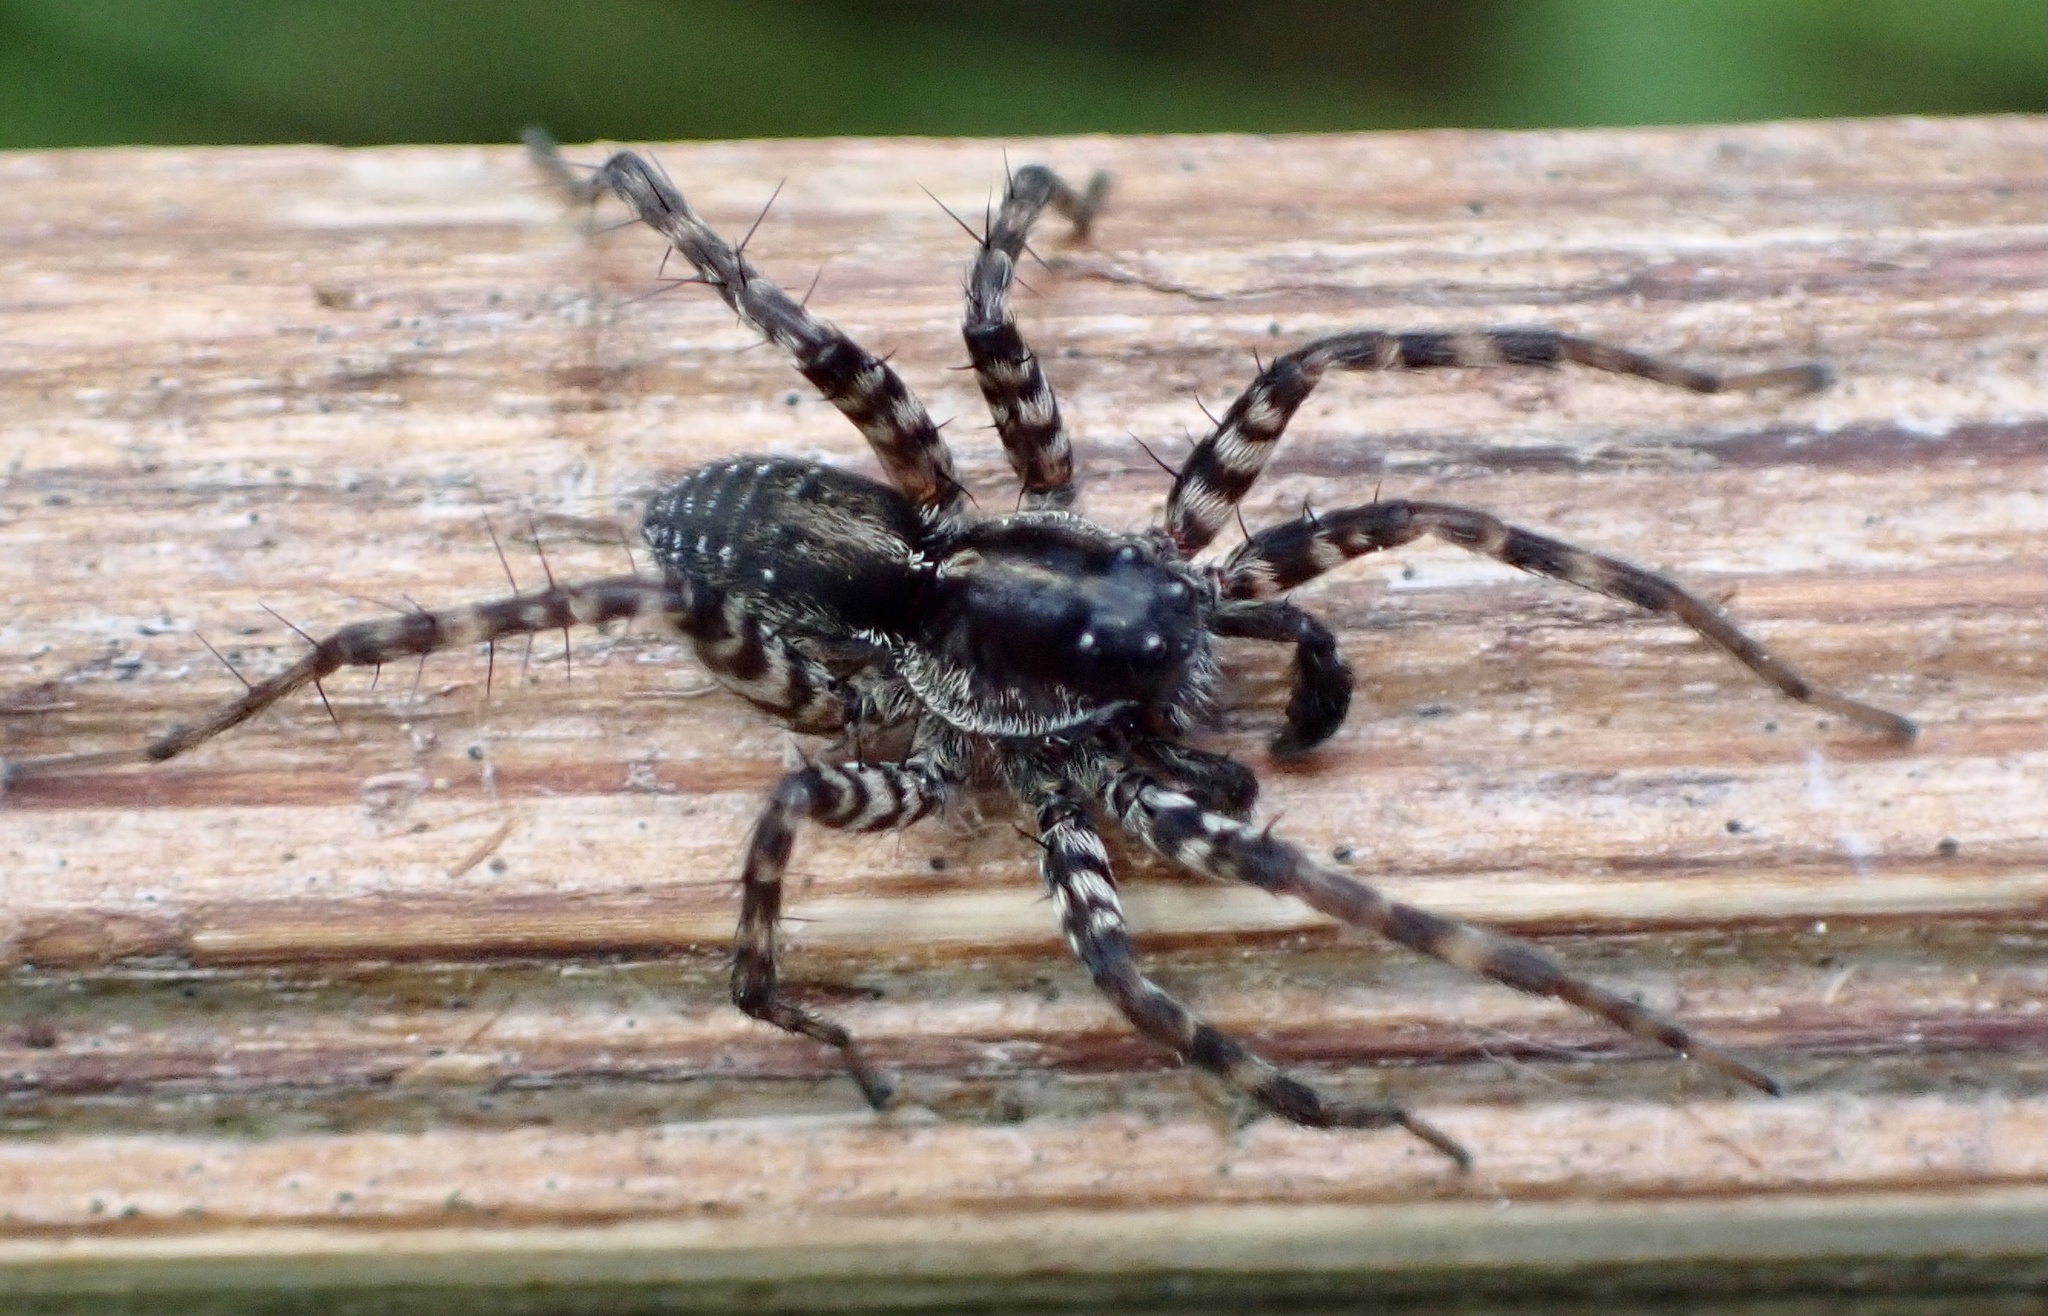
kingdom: Animalia
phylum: Arthropoda
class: Arachnida
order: Araneae
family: Lycosidae
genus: Pardosa
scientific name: Pardosa prativaga
